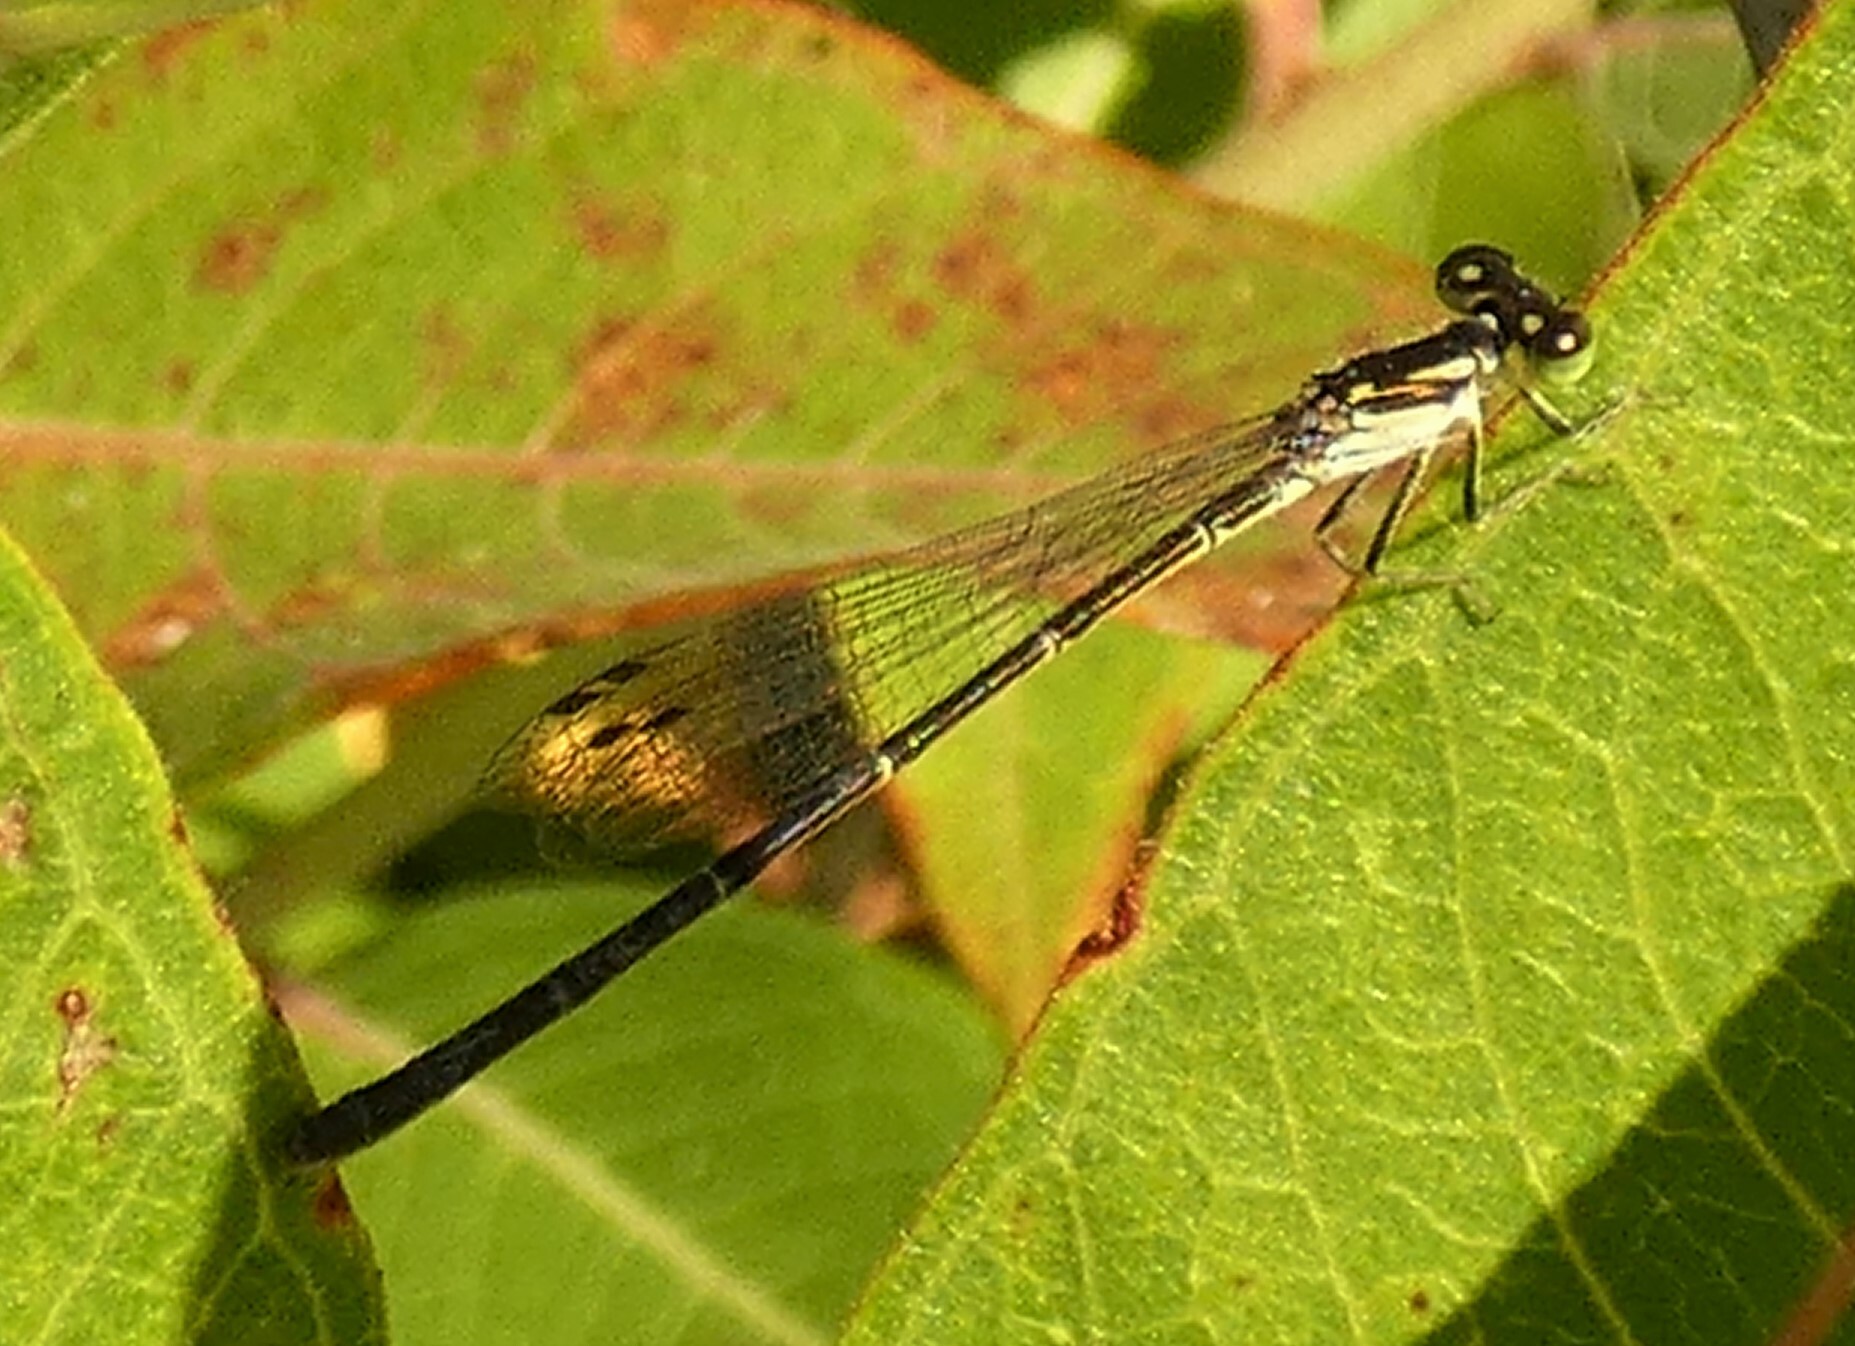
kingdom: Animalia
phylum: Arthropoda
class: Insecta
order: Odonata
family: Coenagrionidae
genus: Ischnura
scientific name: Ischnura posita
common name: Fragile forktail
